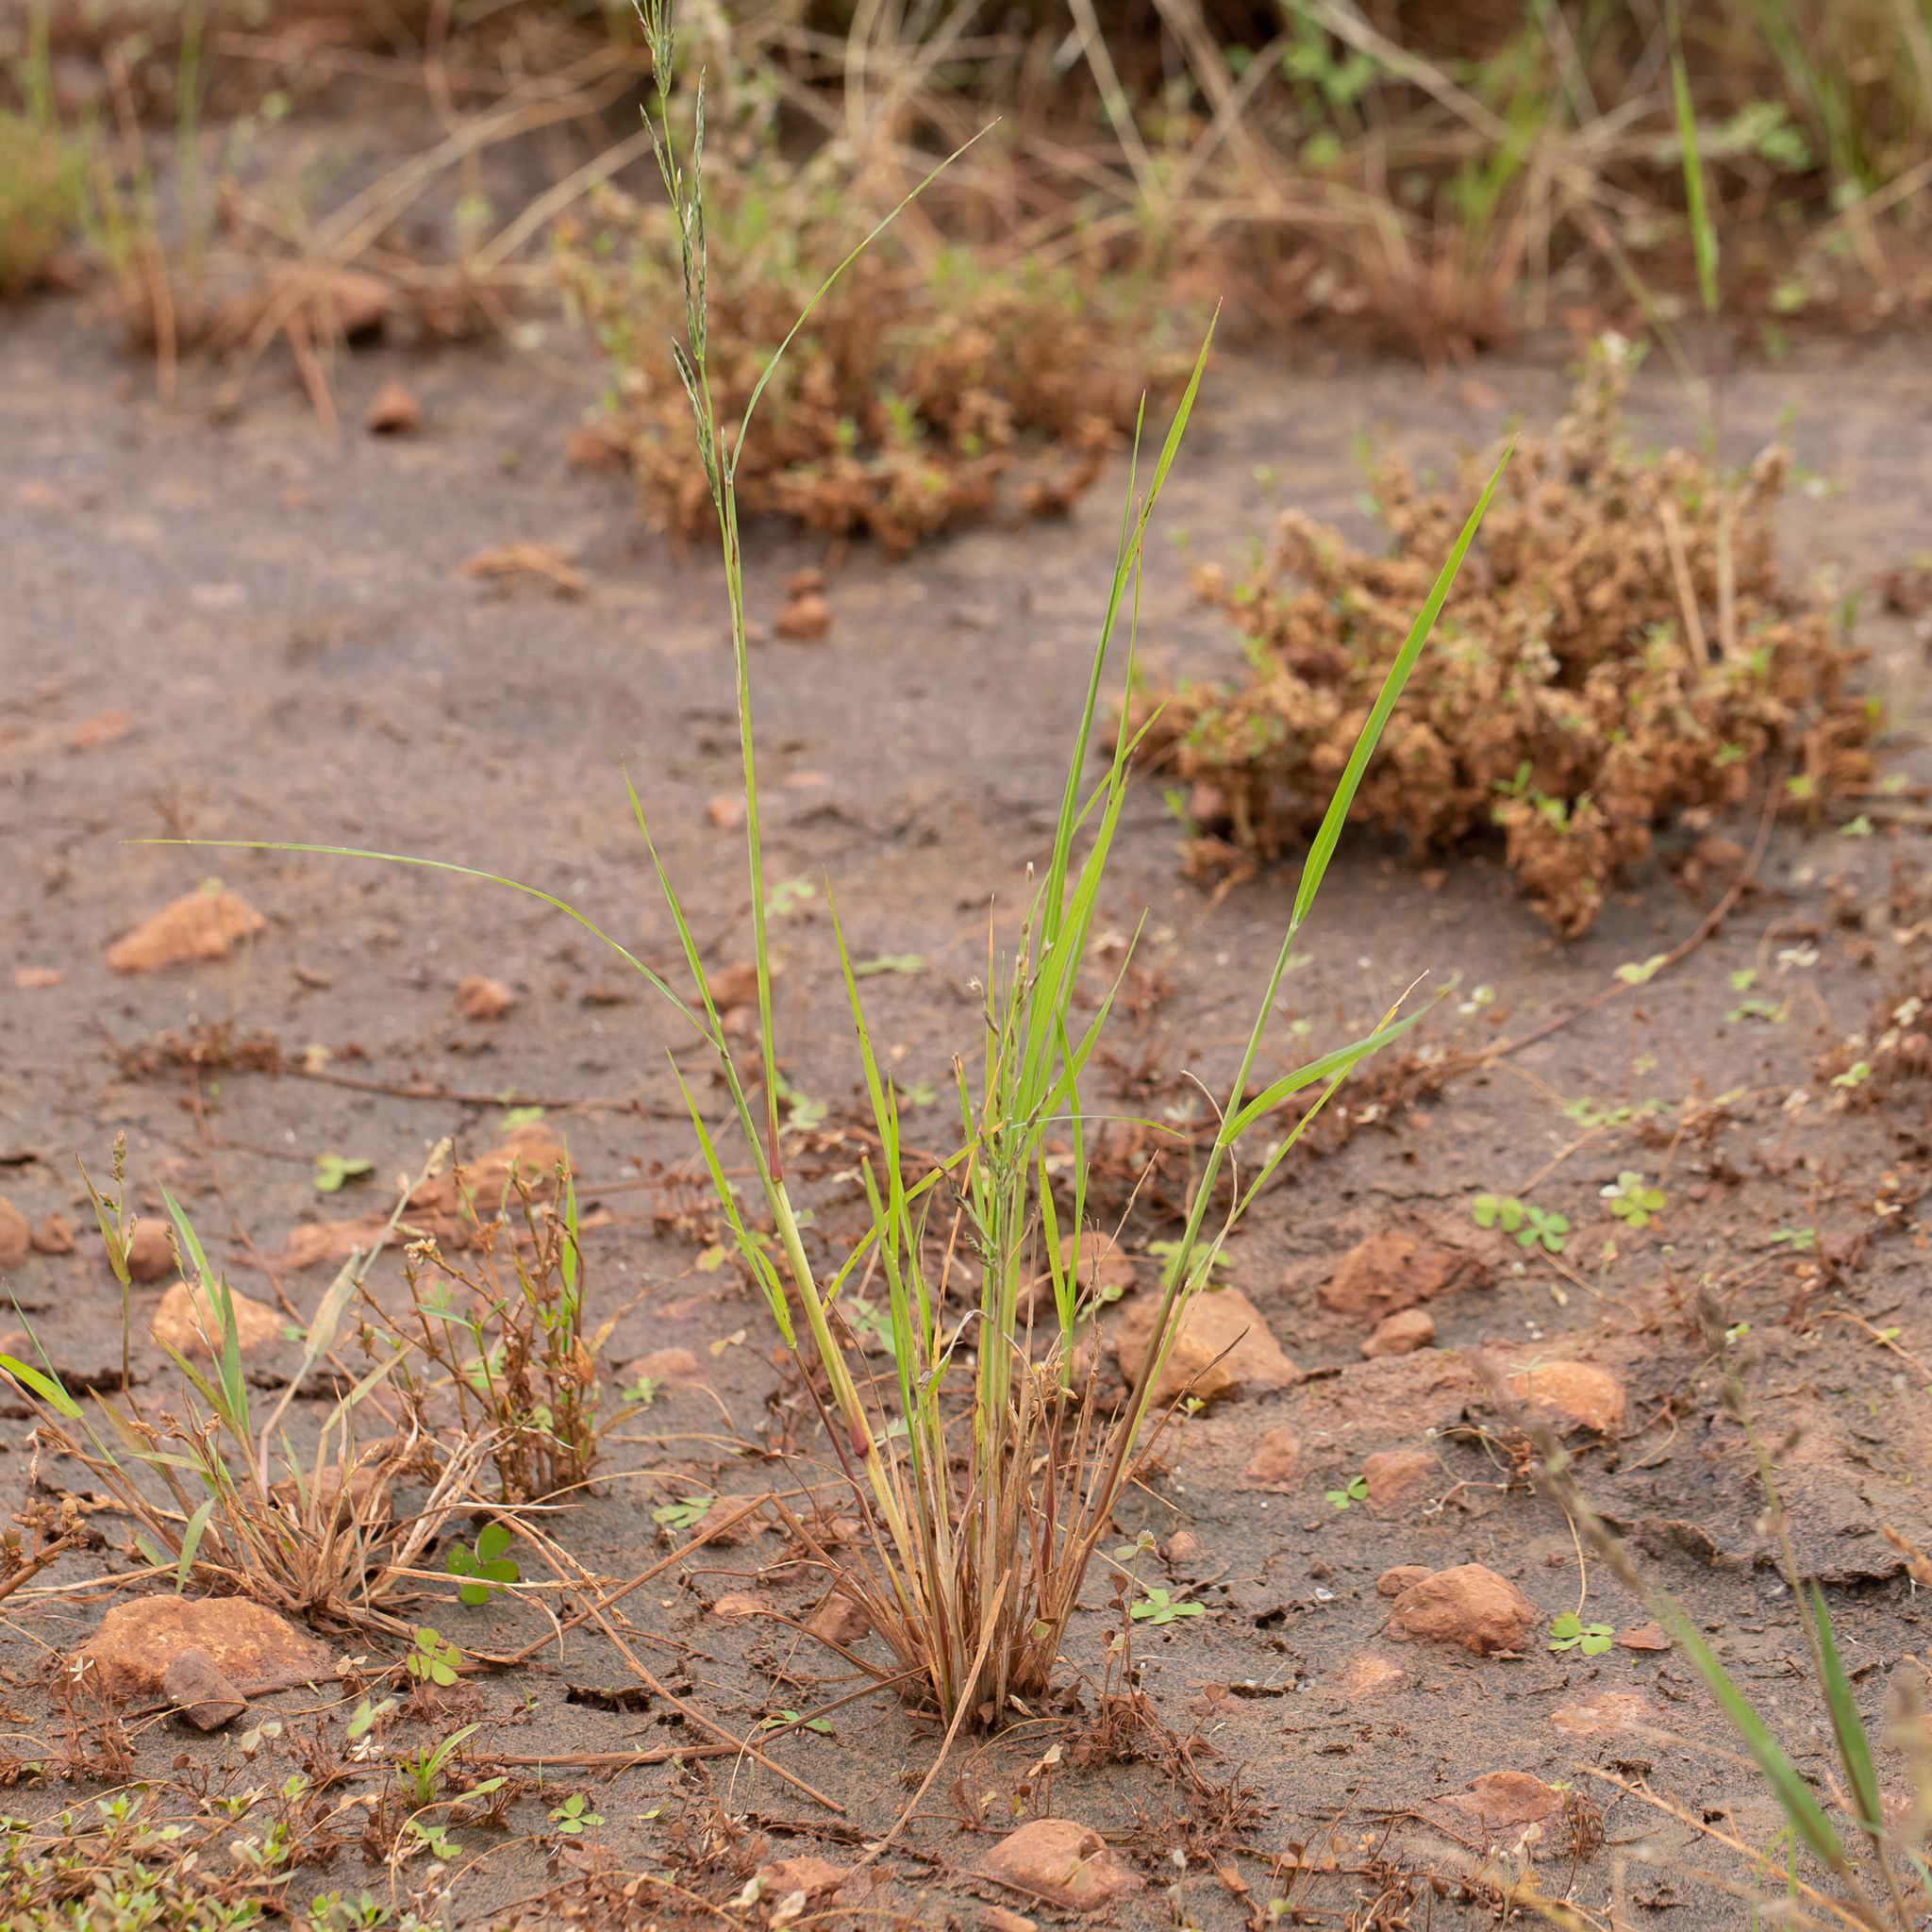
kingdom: Plantae
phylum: Tracheophyta
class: Liliopsida
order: Poales
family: Poaceae
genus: Diplachne
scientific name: Diplachne fusca
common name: Brown beetle grass
